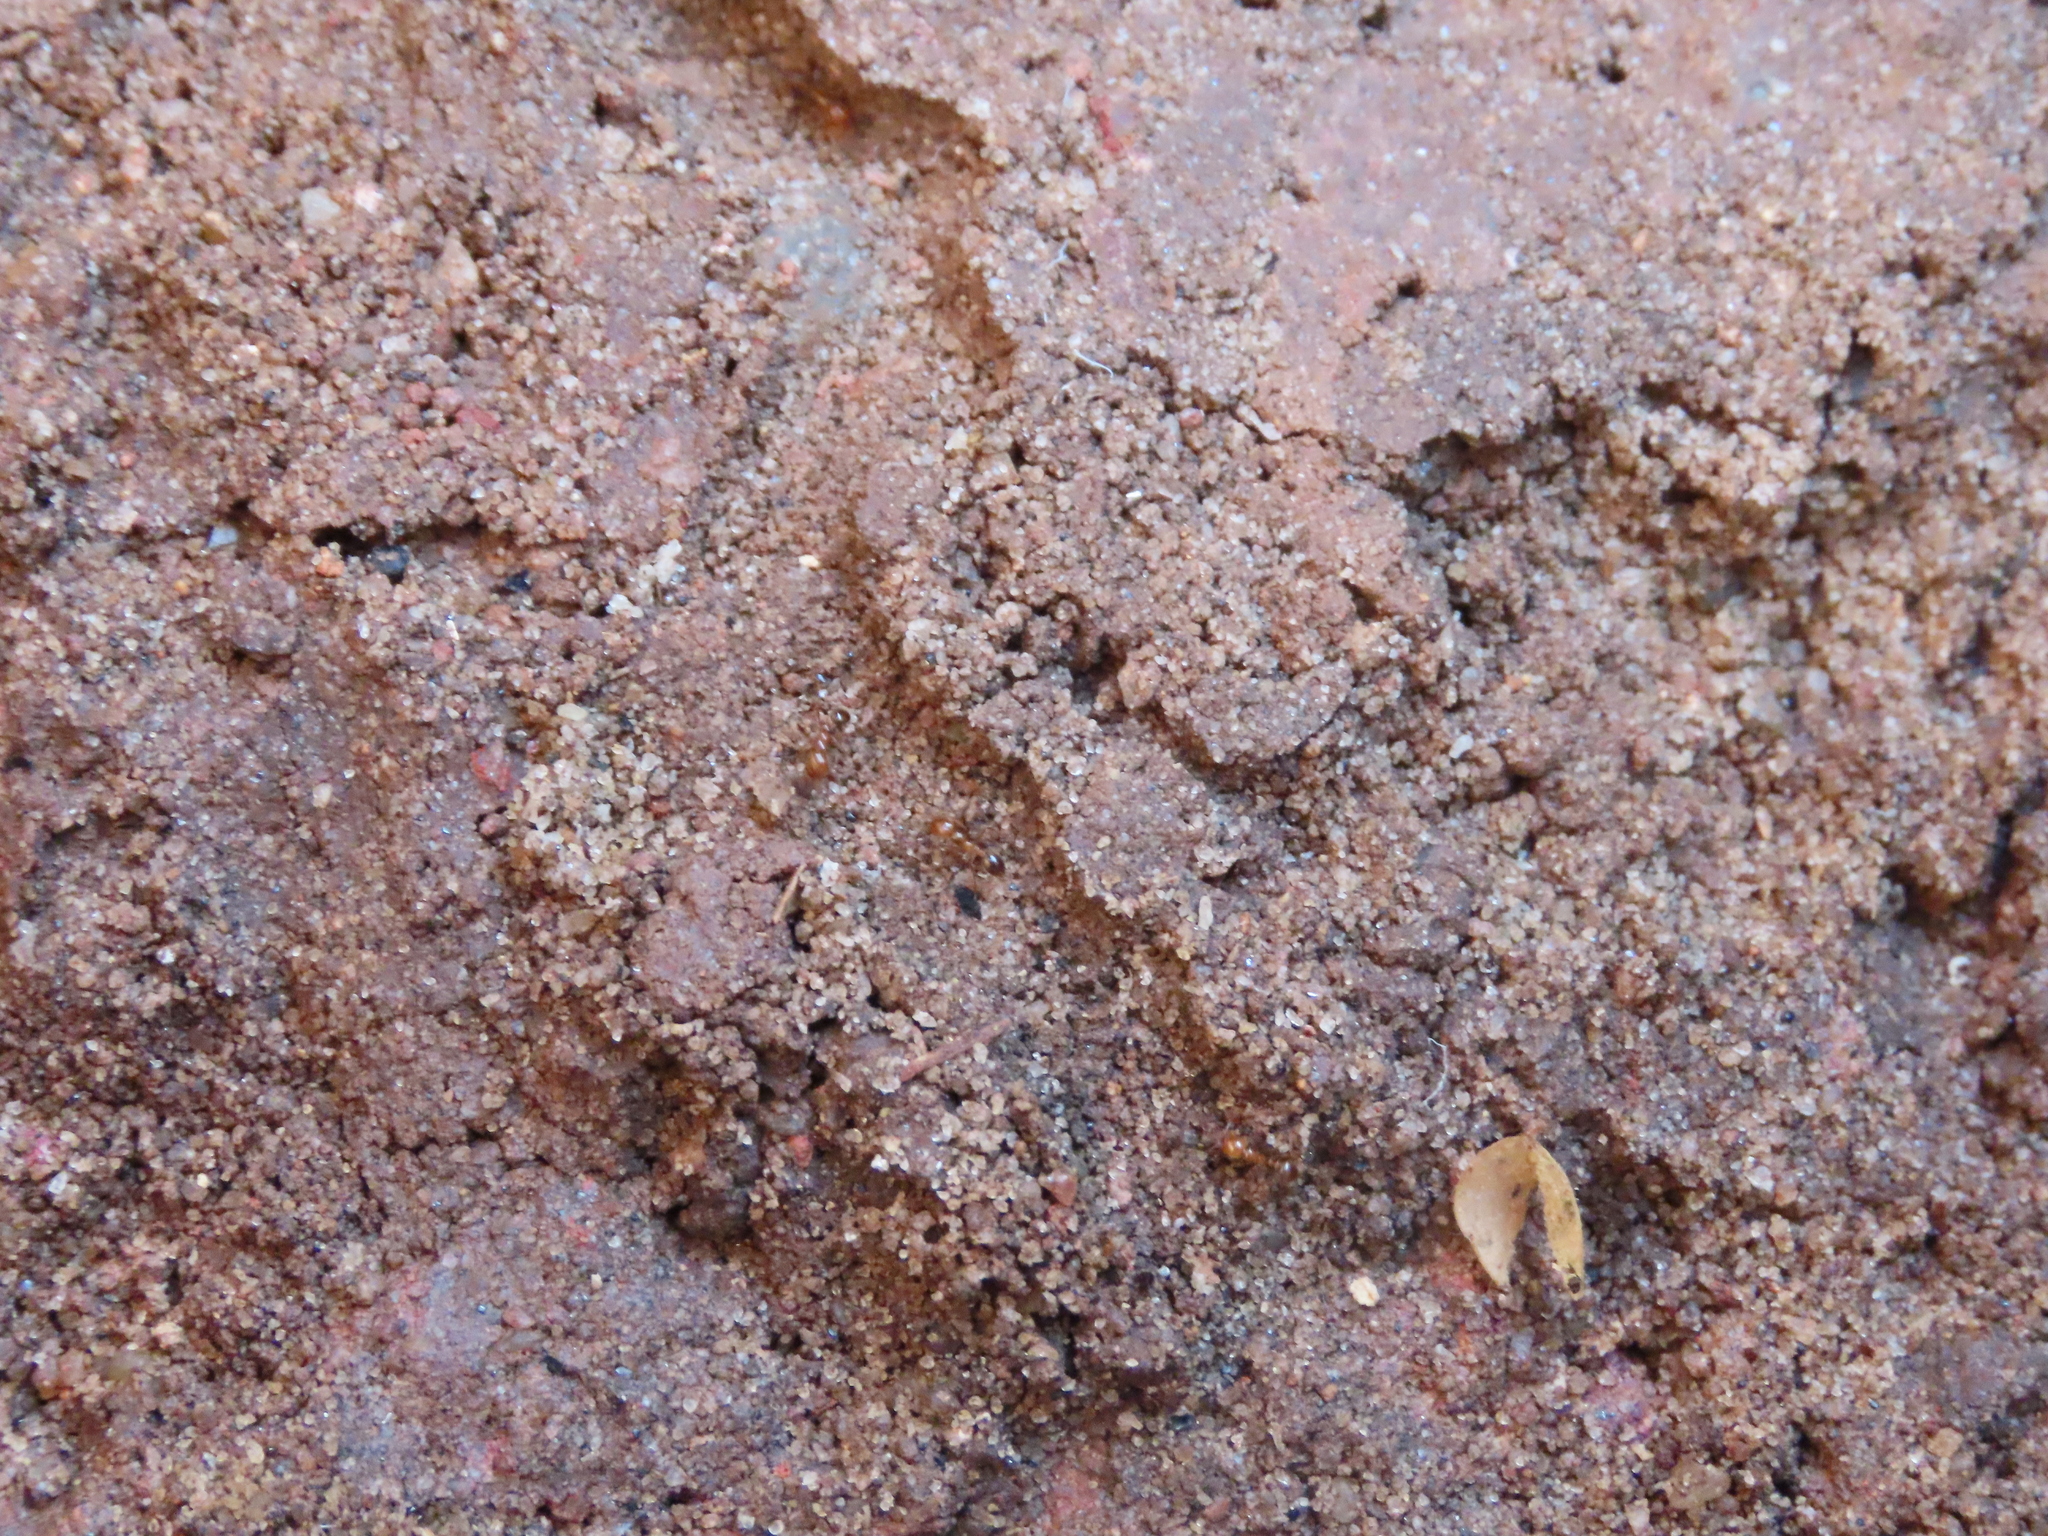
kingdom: Animalia
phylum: Arthropoda
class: Insecta
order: Hymenoptera
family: Formicidae
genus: Solenopsis
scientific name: Solenopsis geminata
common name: Tropical fire ant
